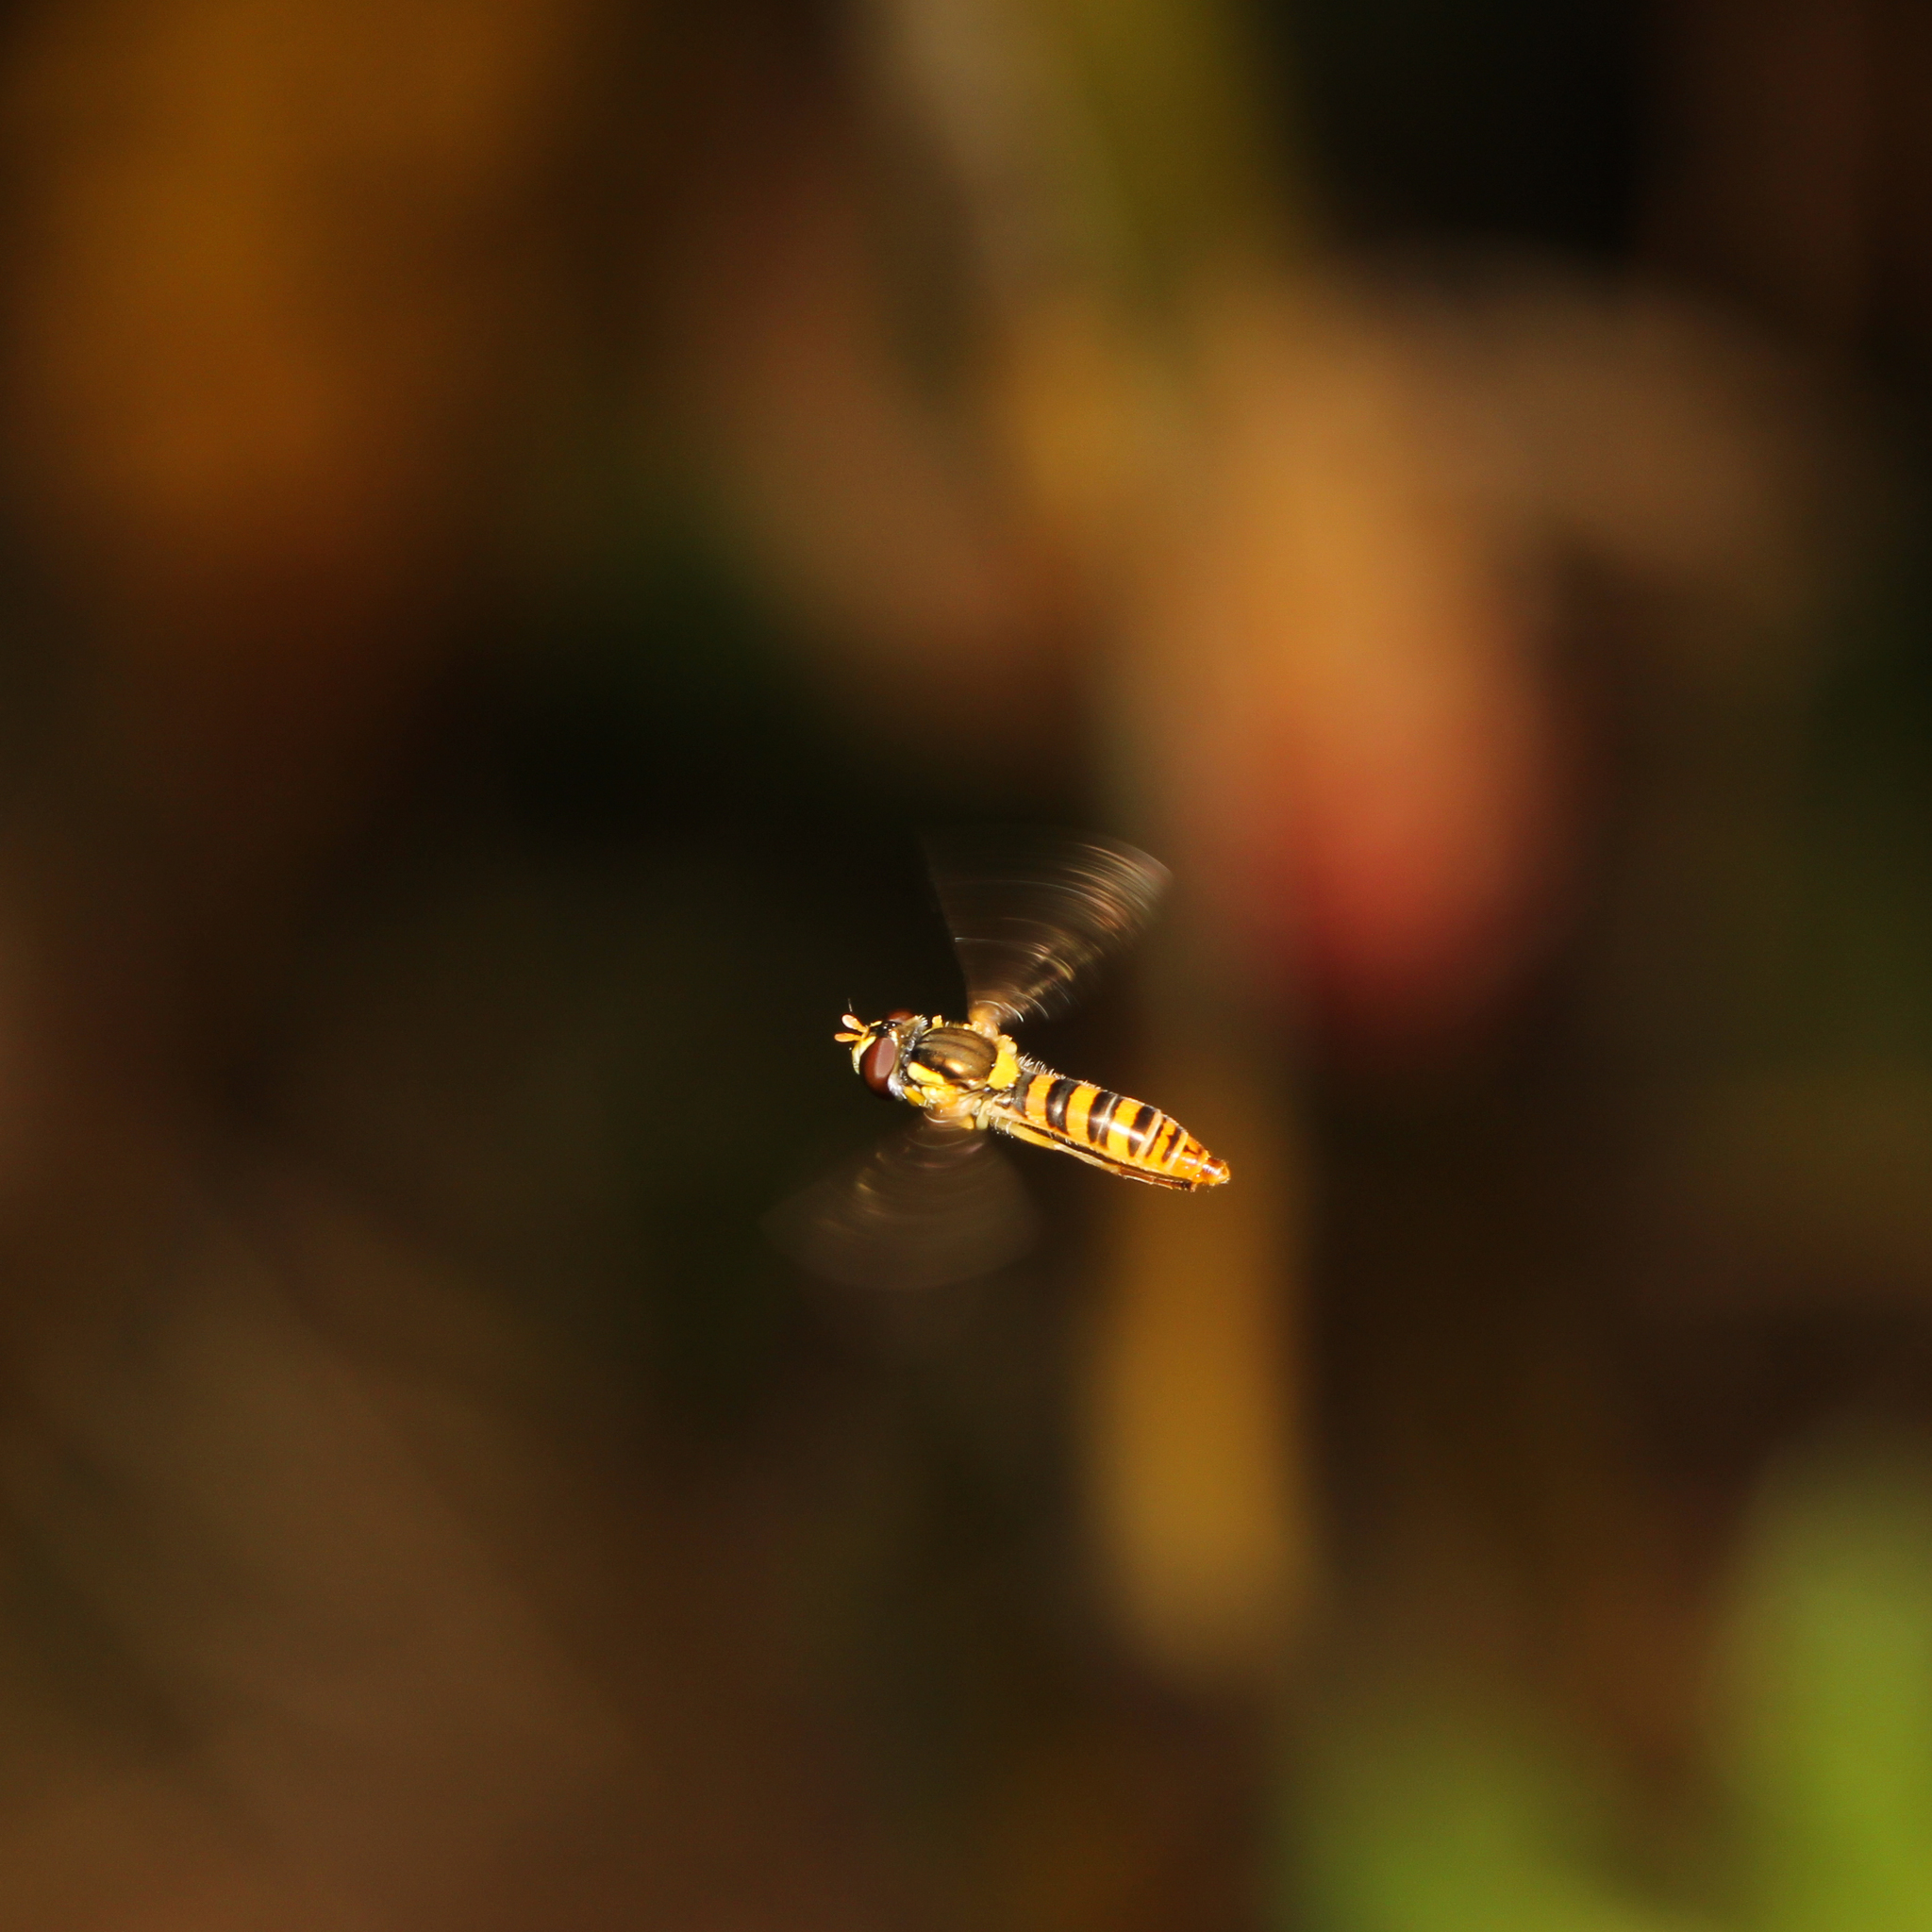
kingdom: Animalia
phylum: Arthropoda
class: Insecta
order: Diptera
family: Syrphidae
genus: Sphaerophoria
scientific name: Sphaerophoria contigua
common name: Tufted globetail
